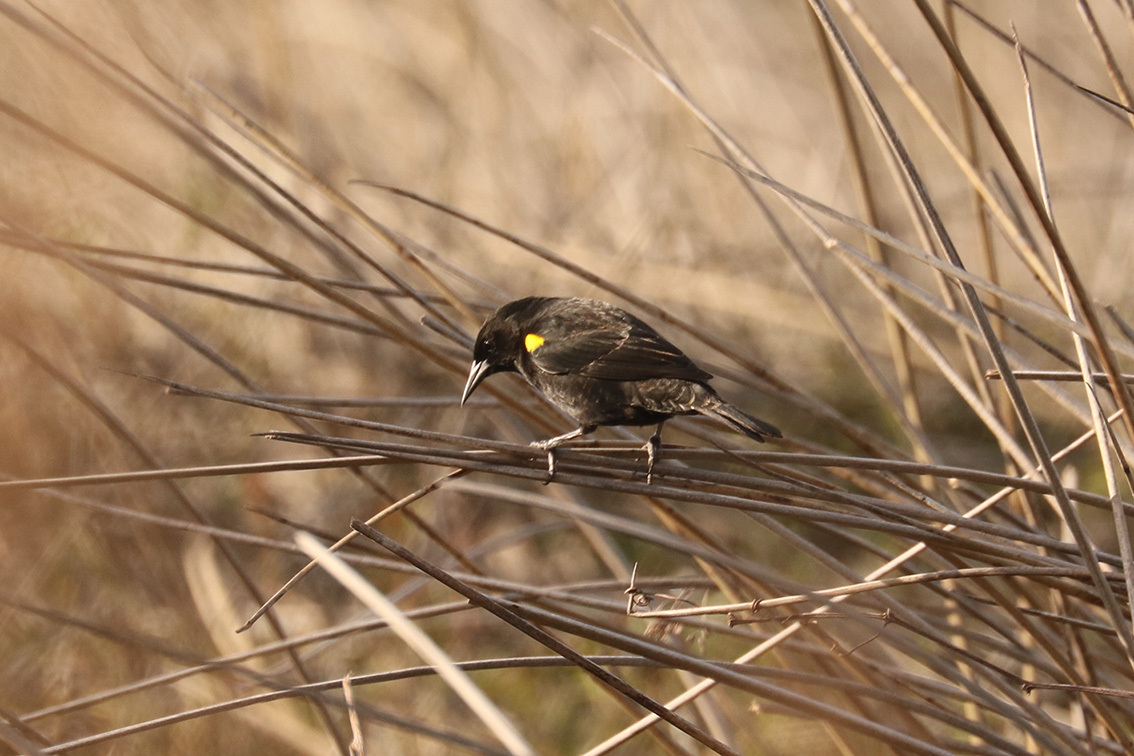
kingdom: Animalia
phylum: Chordata
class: Aves
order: Passeriformes
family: Icteridae
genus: Agelasticus
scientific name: Agelasticus thilius
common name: Yellow-winged blackbird
